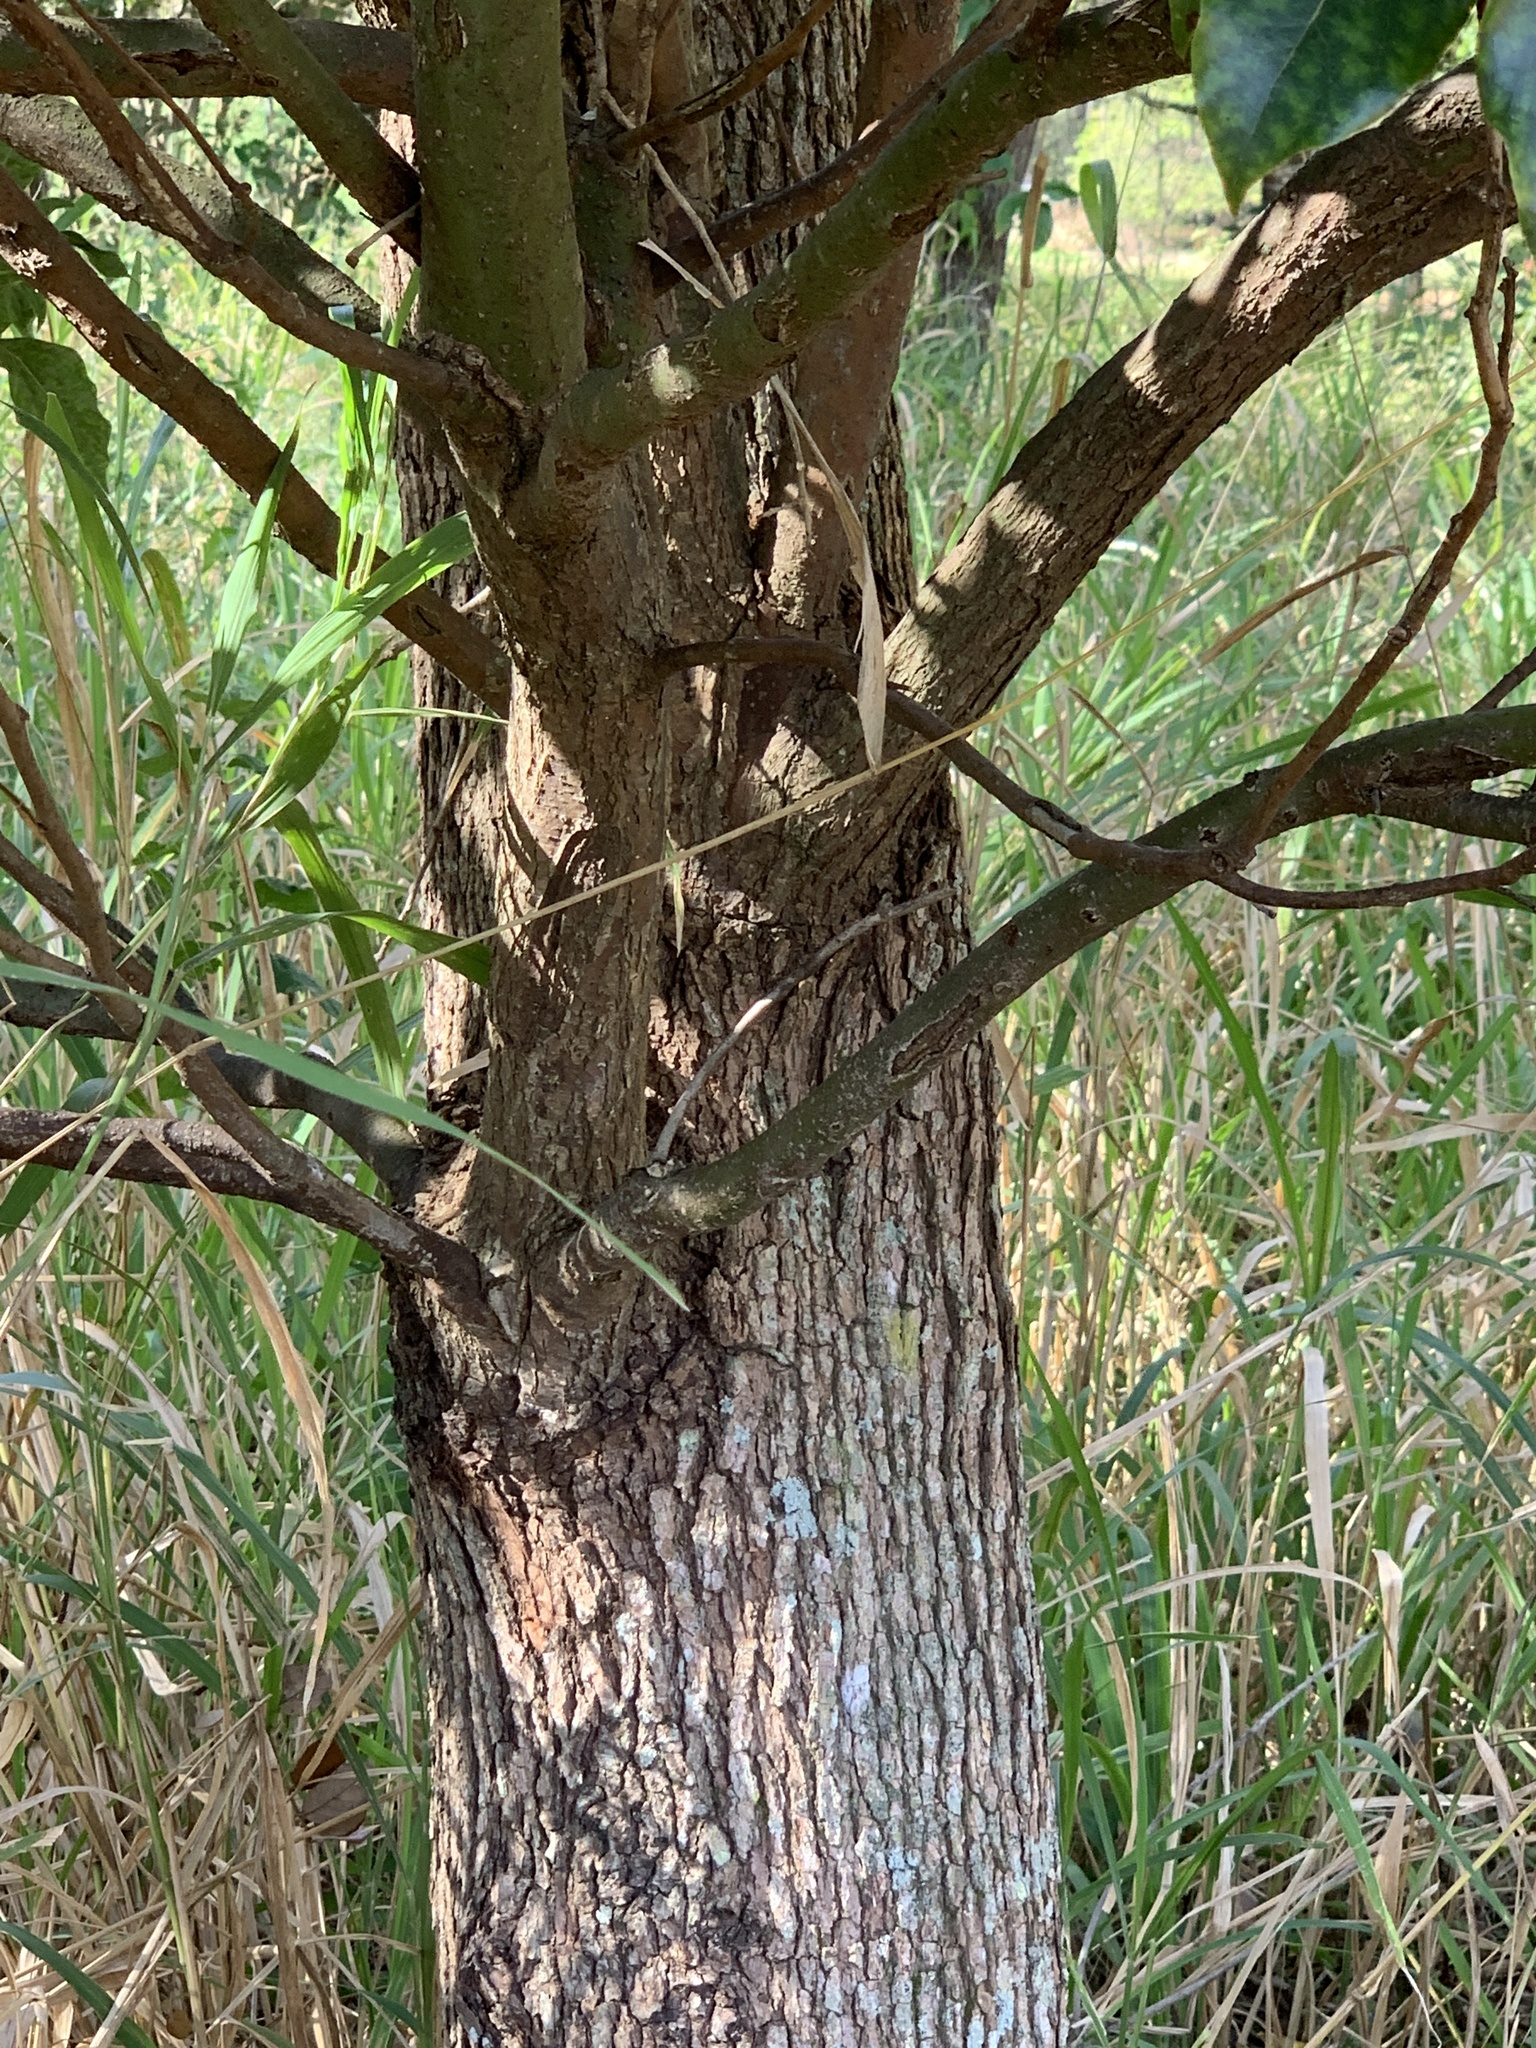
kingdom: Plantae
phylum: Tracheophyta
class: Magnoliopsida
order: Laurales
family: Lauraceae
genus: Cinnamomum
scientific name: Cinnamomum camphora
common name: Camphortree
